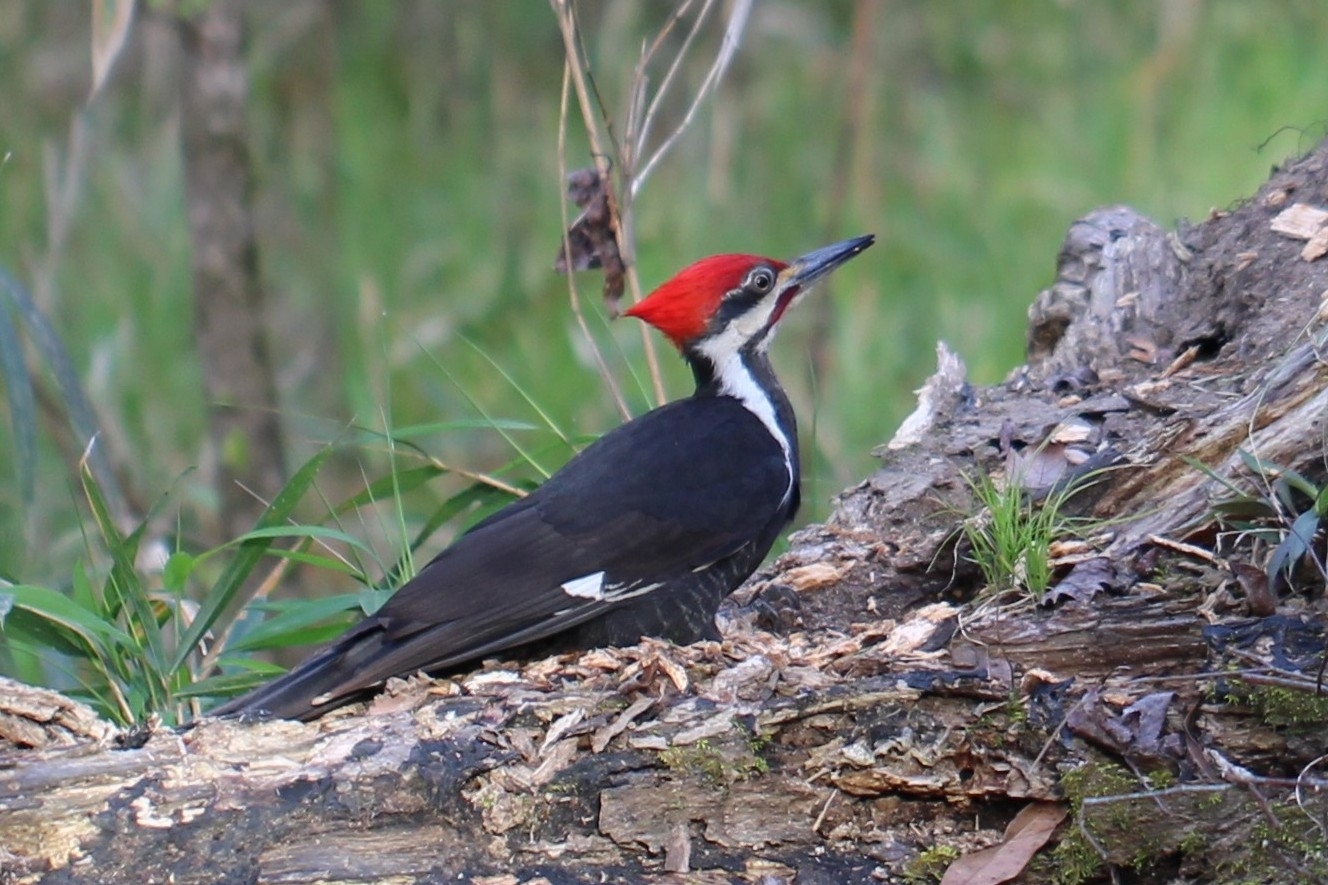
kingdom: Animalia
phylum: Chordata
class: Aves
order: Piciformes
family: Picidae
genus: Dryocopus
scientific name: Dryocopus pileatus
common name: Pileated woodpecker
